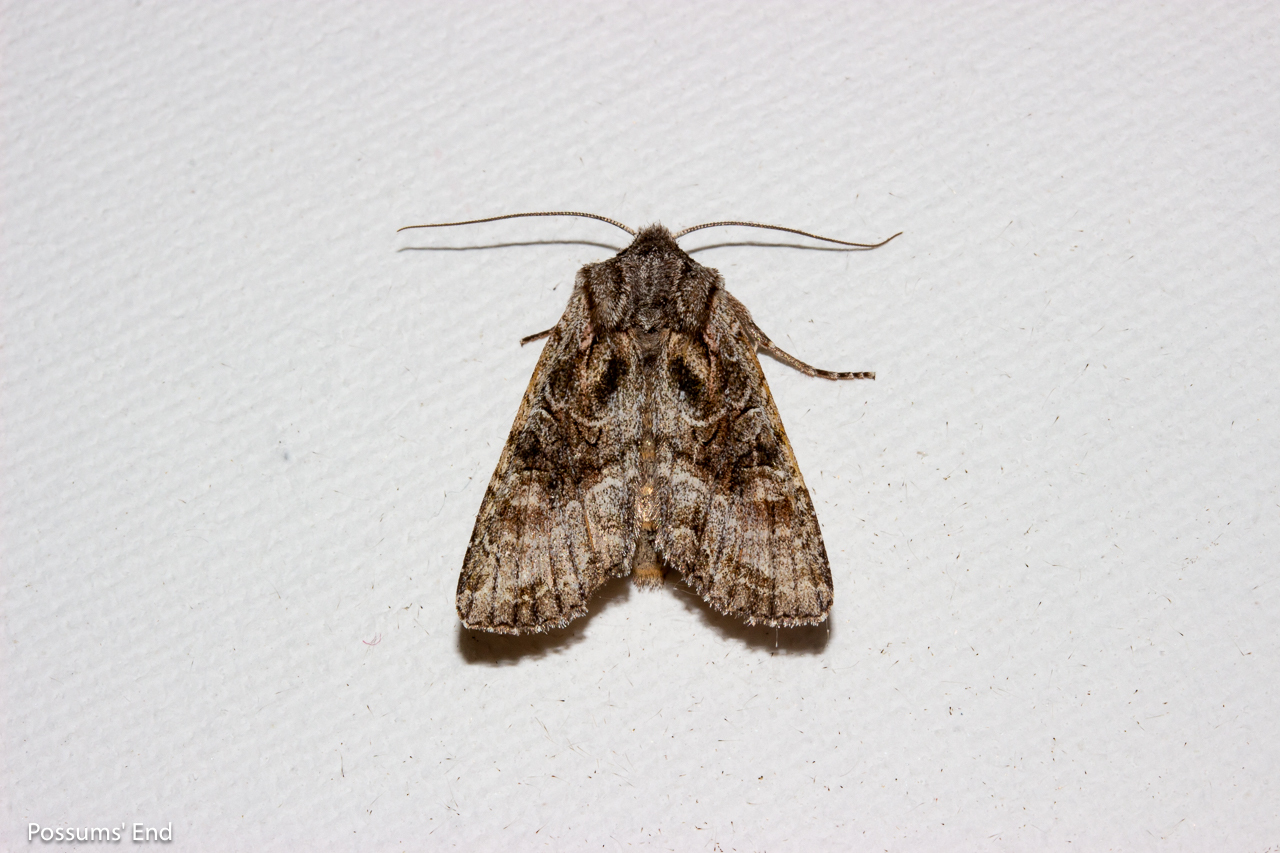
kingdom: Animalia
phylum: Arthropoda
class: Insecta
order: Lepidoptera
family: Noctuidae
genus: Ichneutica
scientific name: Ichneutica mutans
